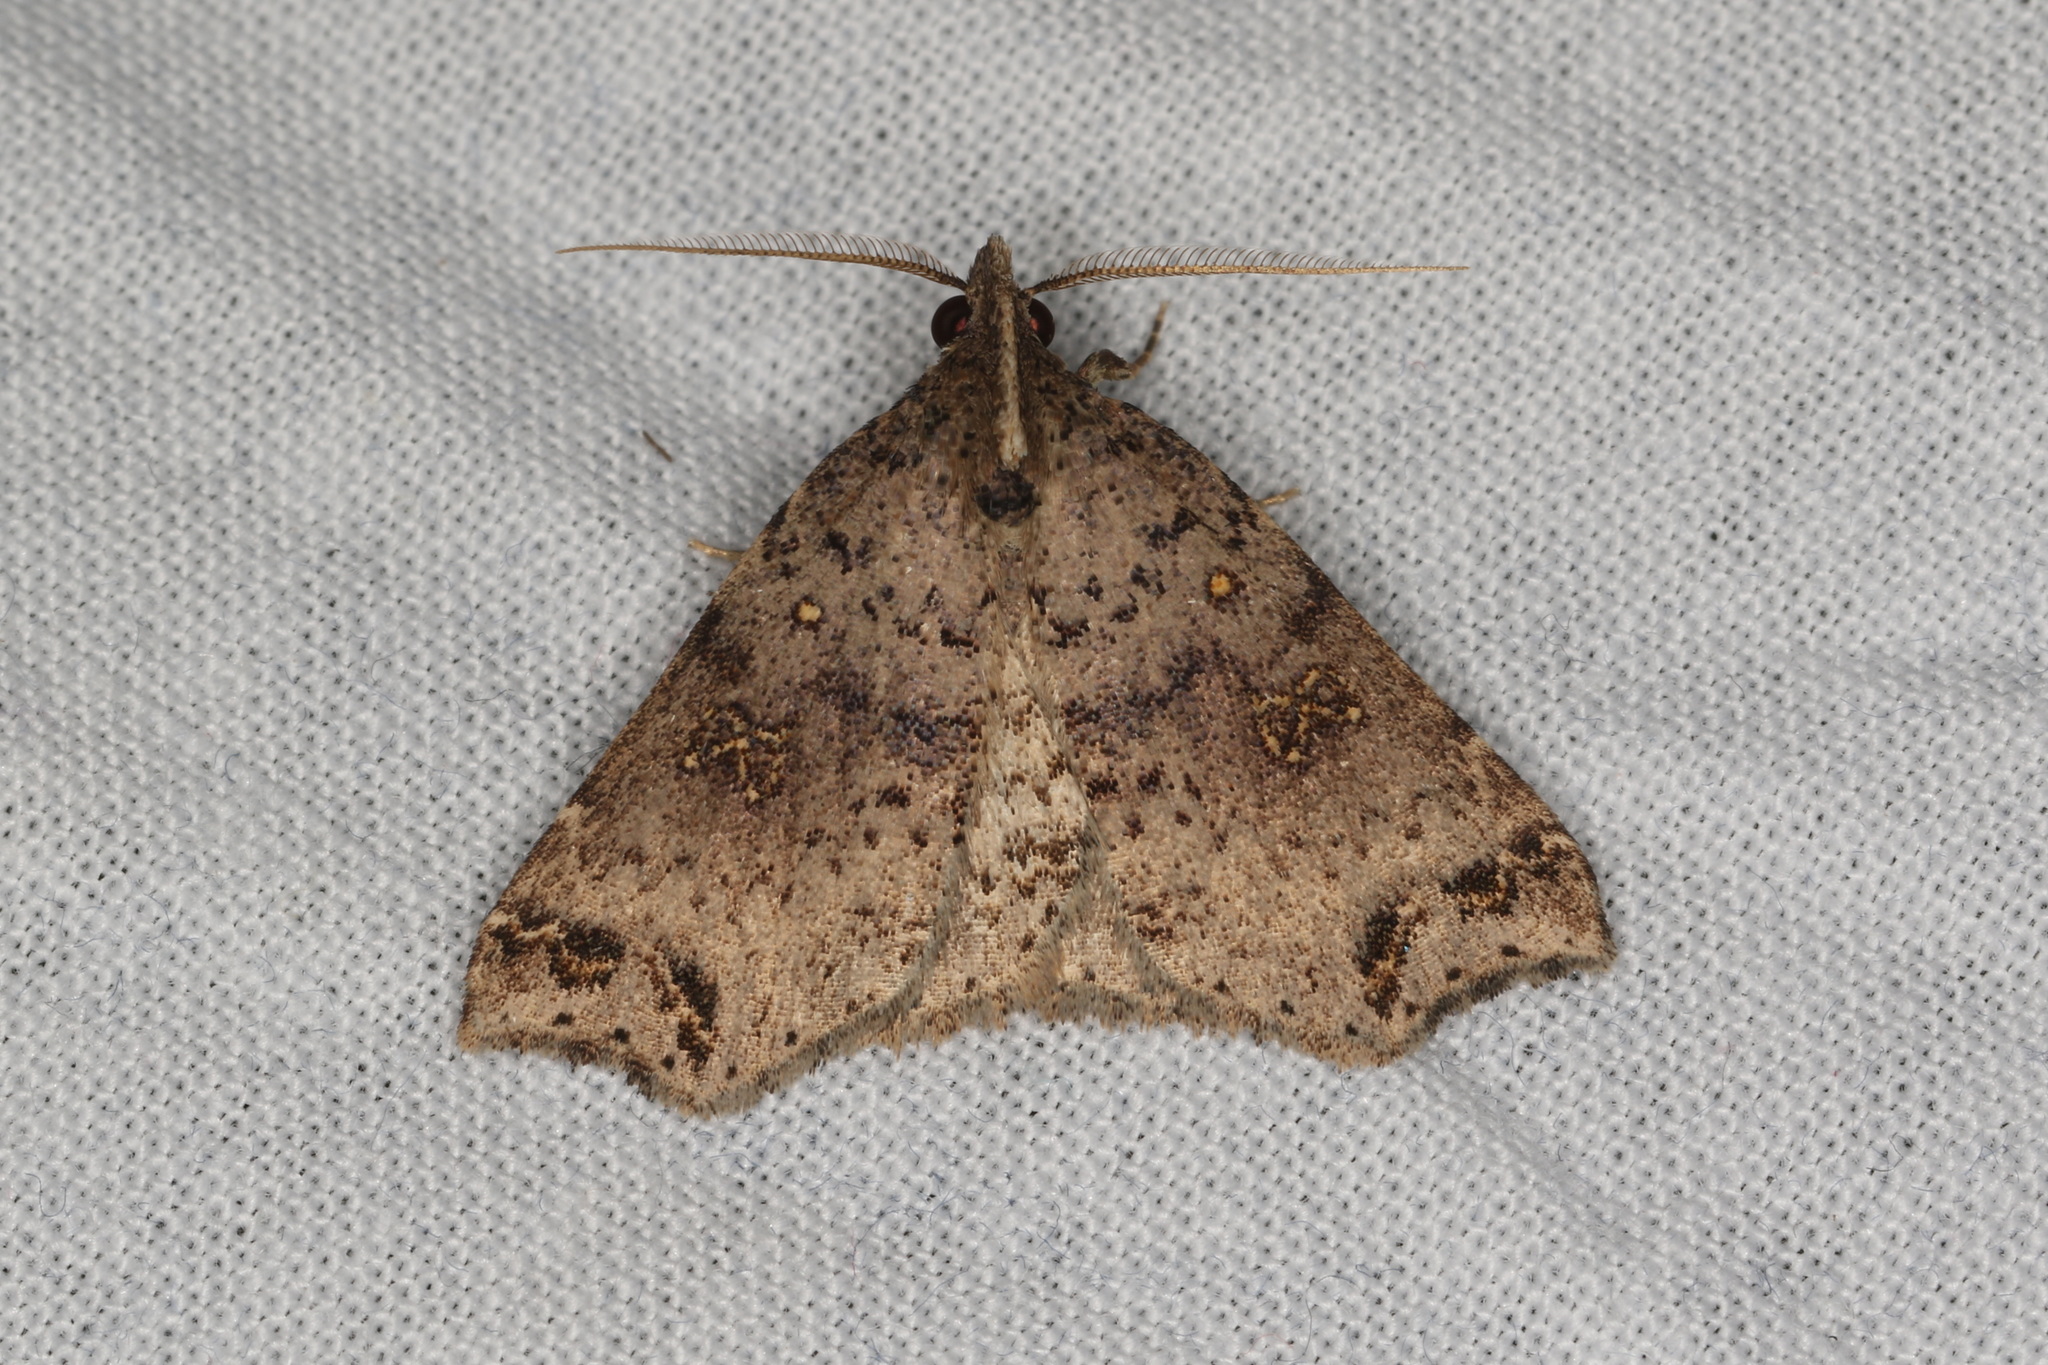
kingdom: Animalia
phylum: Arthropoda
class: Insecta
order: Lepidoptera
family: Erebidae
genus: Lithilaria
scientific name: Lithilaria proestans
